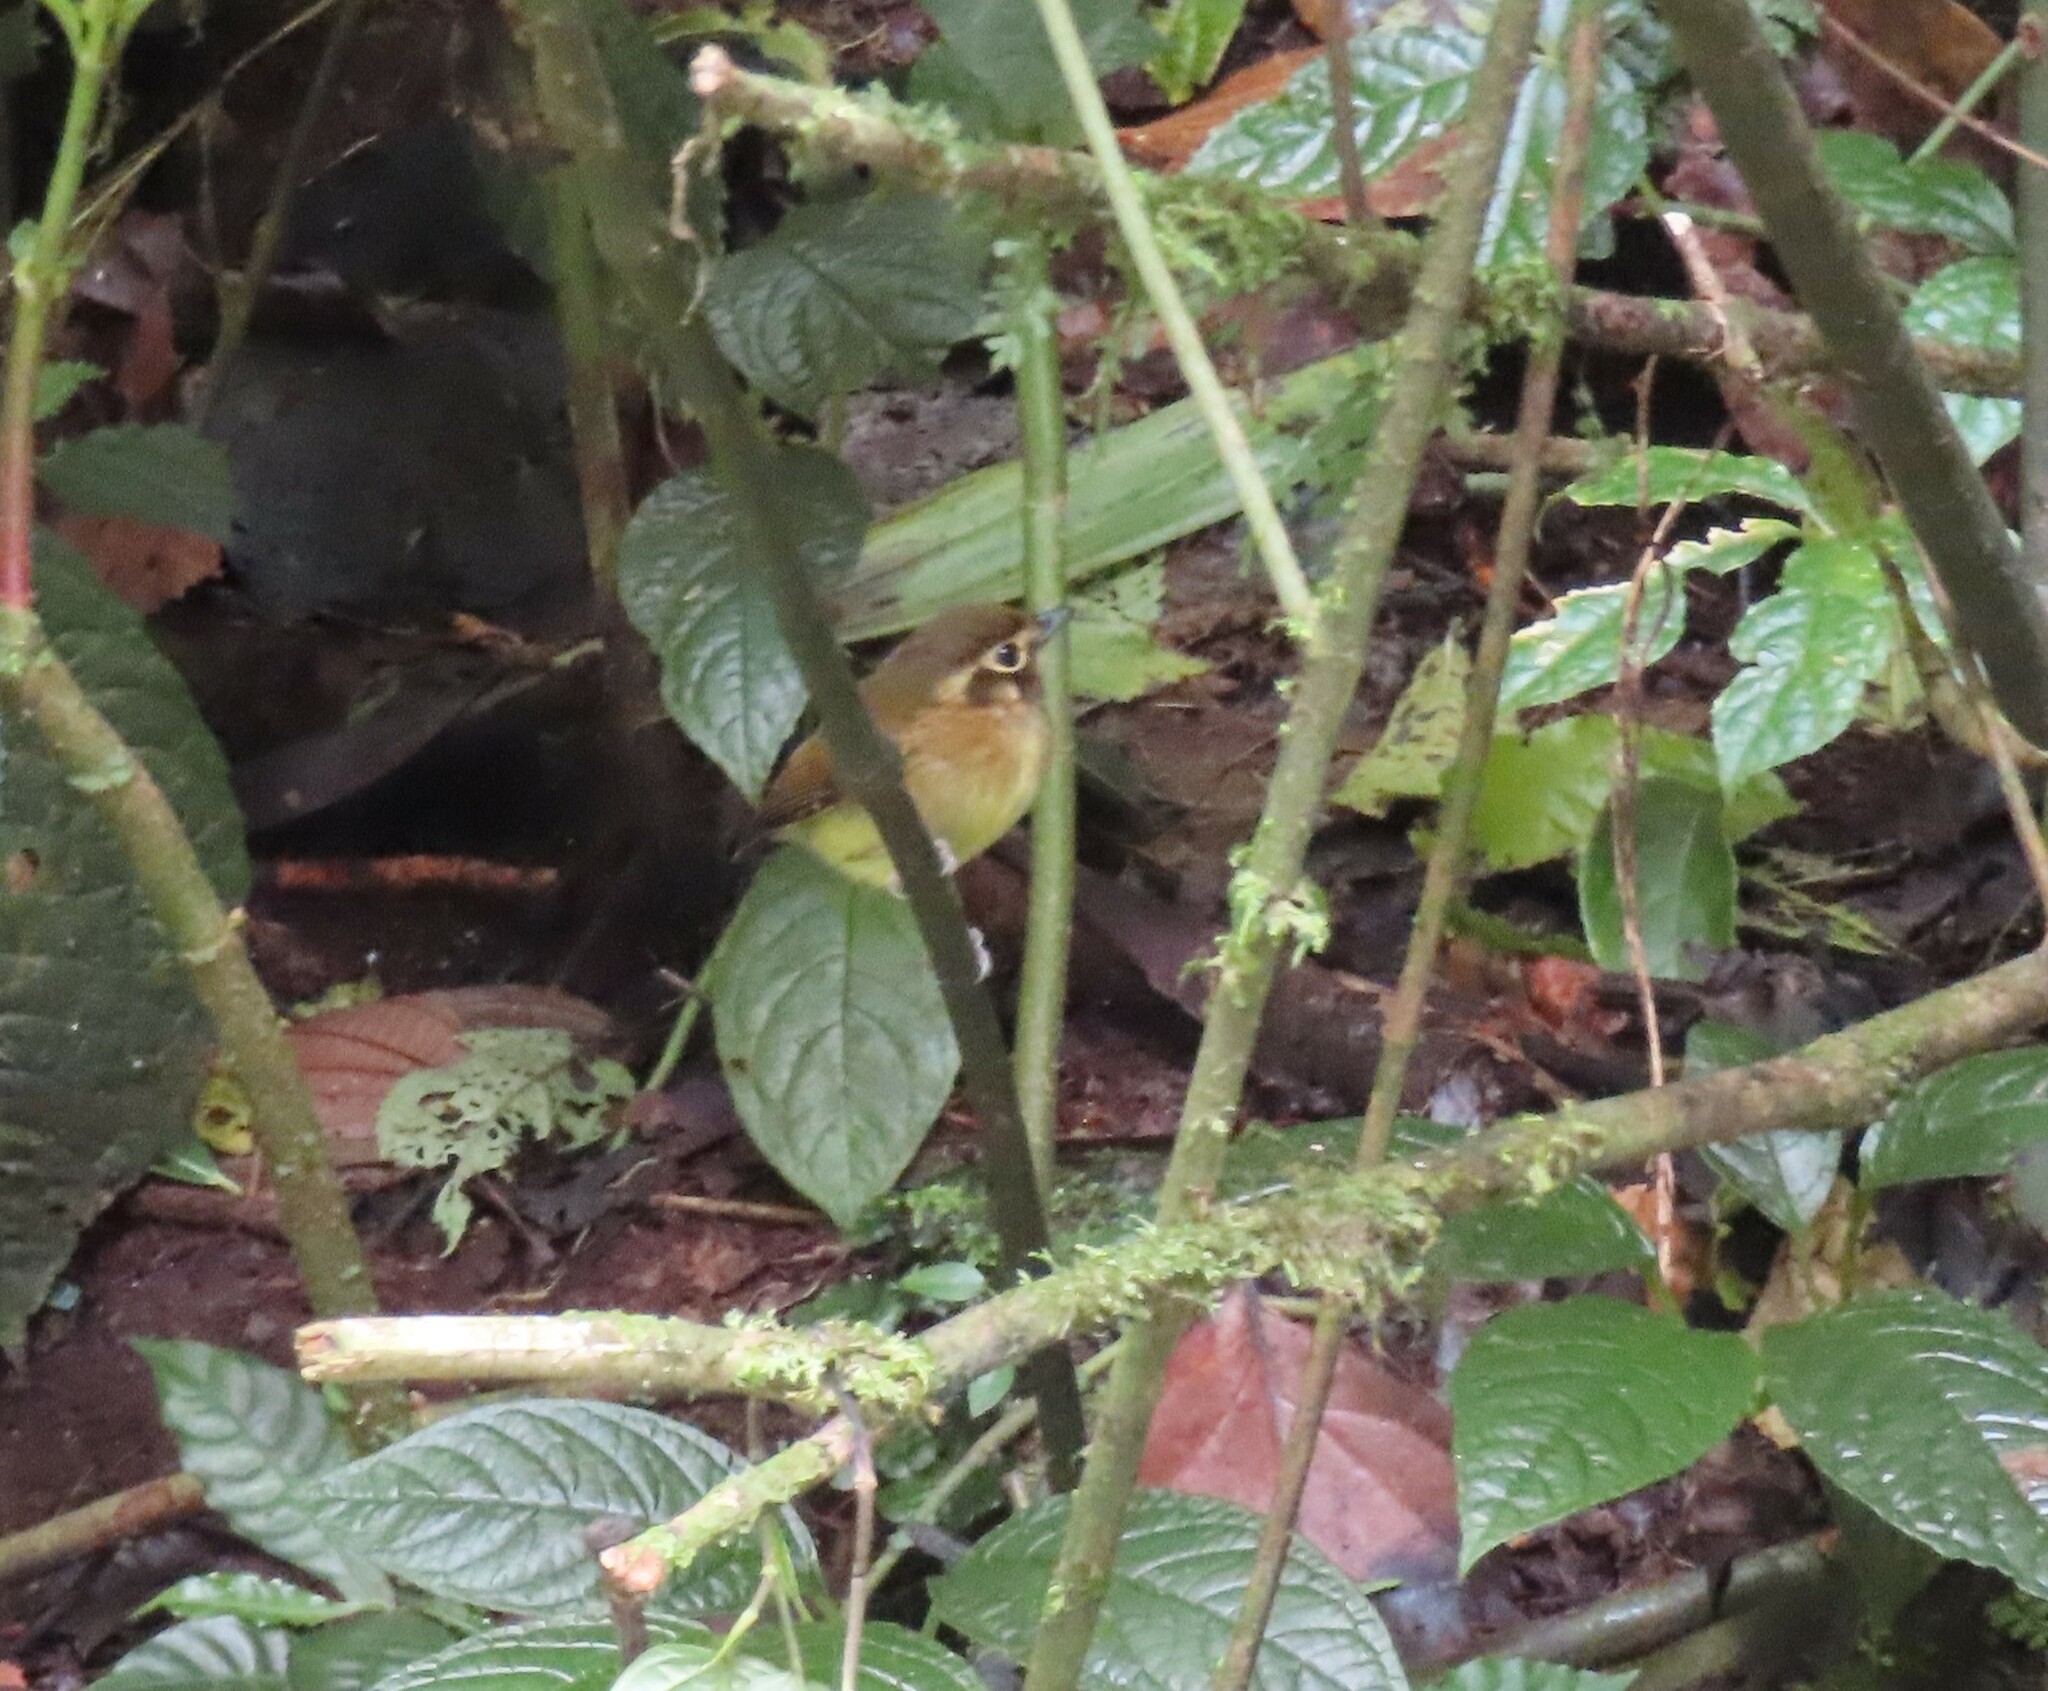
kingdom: Animalia
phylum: Chordata
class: Aves
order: Passeriformes
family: Tyrannidae
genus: Platyrinchus
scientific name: Platyrinchus mystaceus
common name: White-throated spadebill
